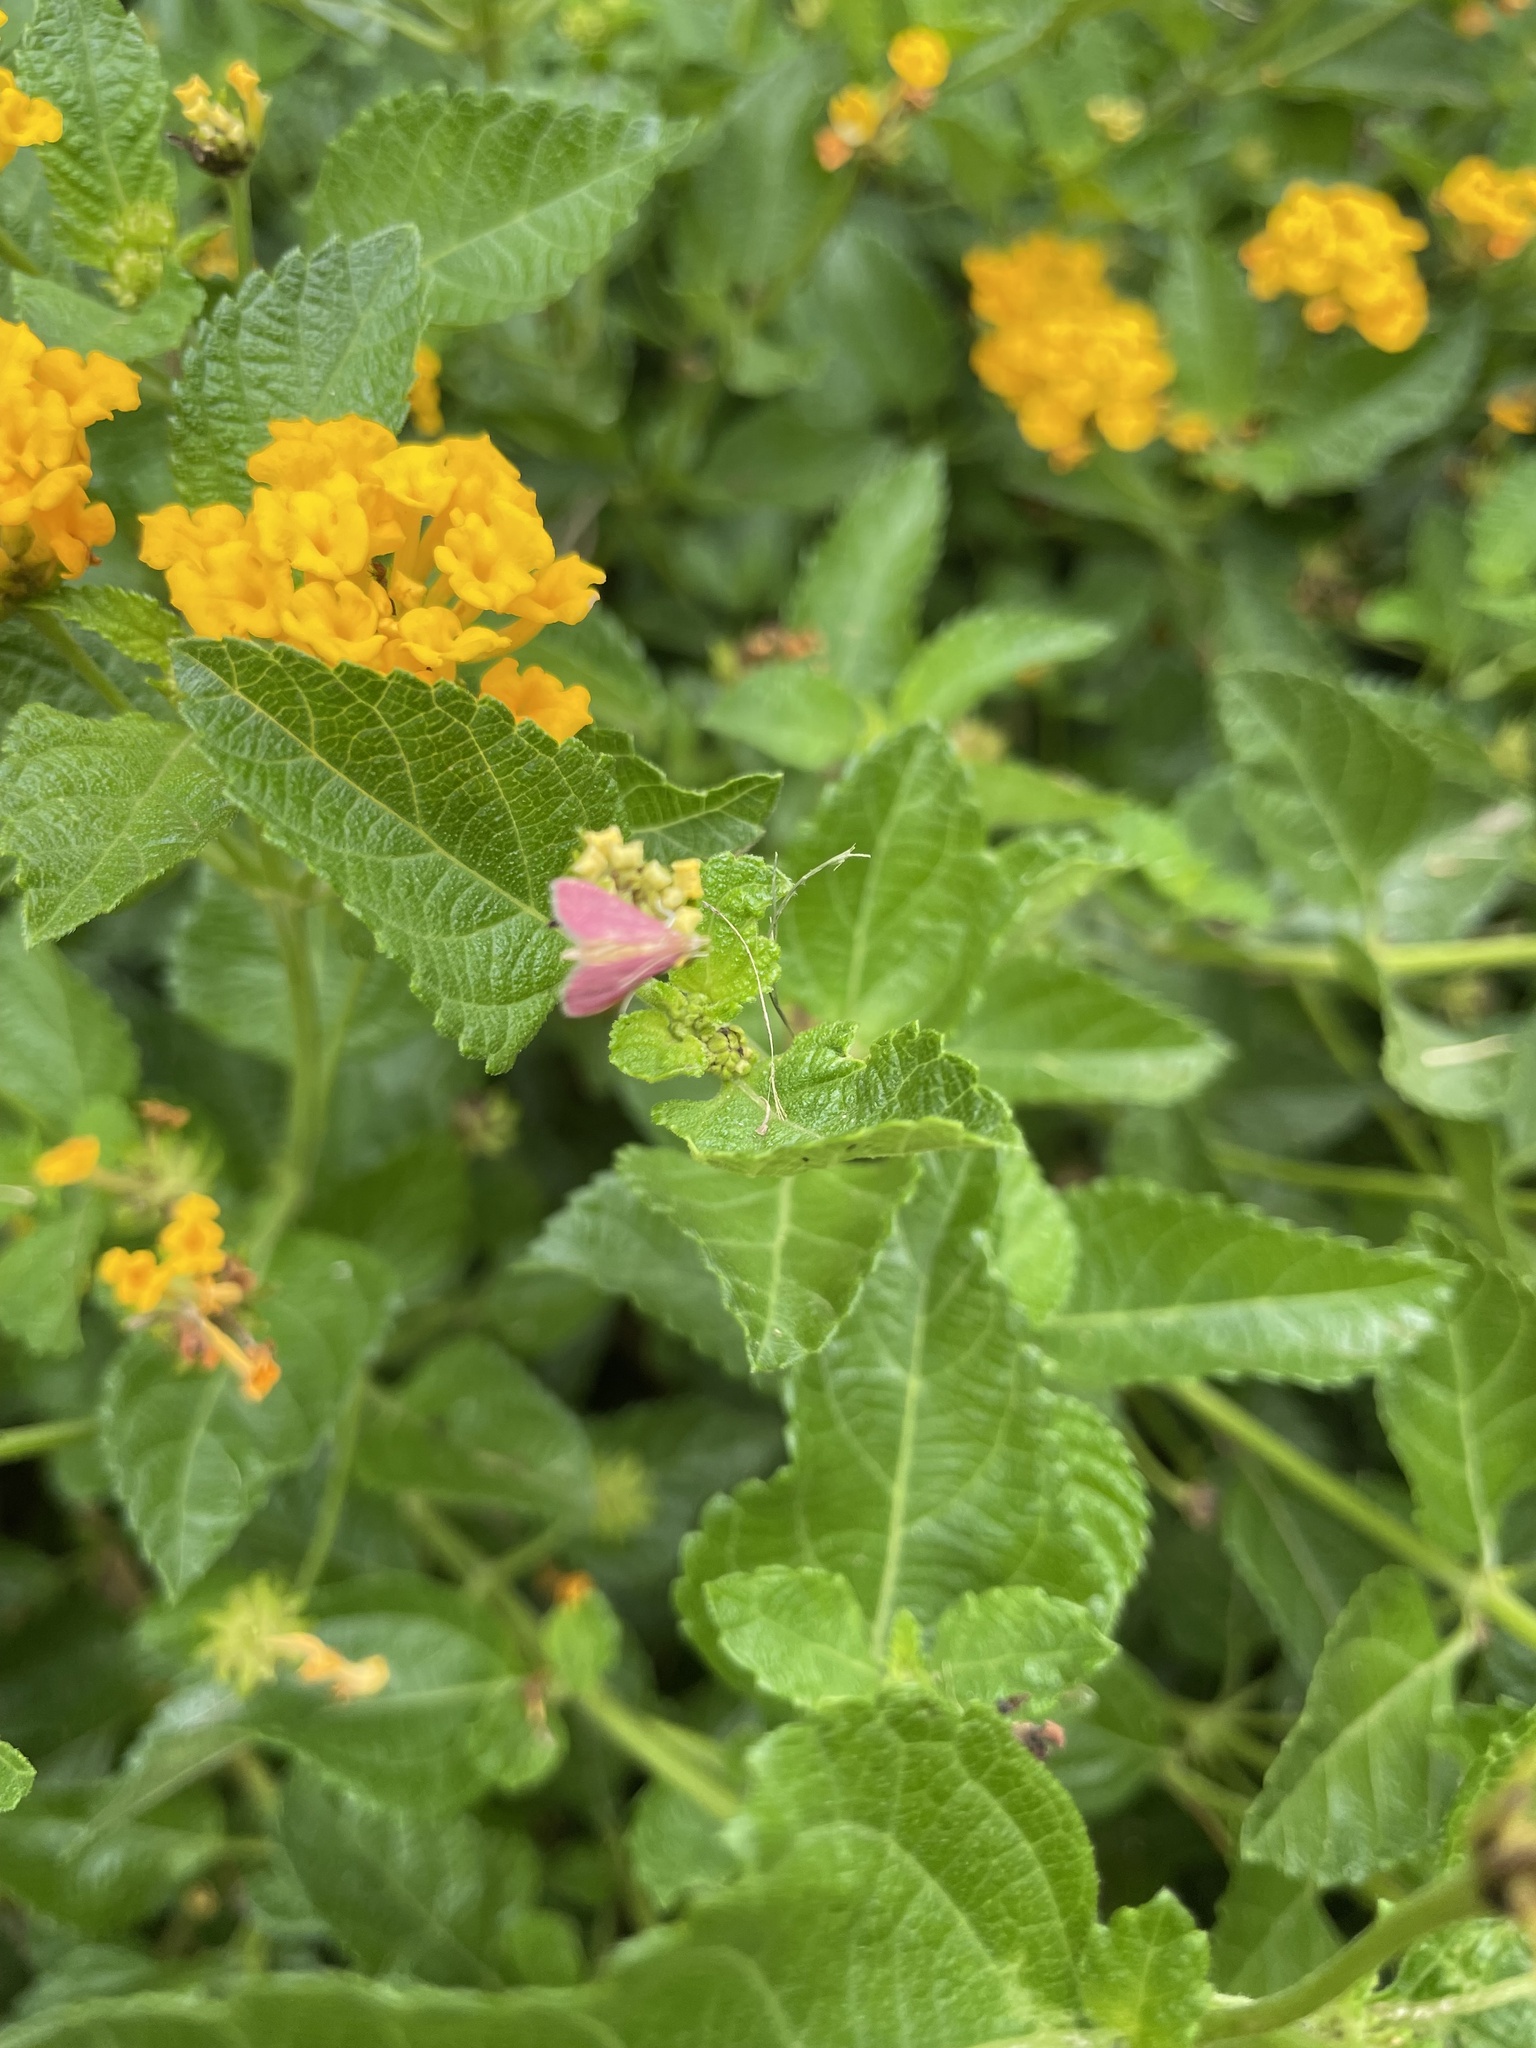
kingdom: Animalia
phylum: Arthropoda
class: Insecta
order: Lepidoptera
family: Crambidae
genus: Pyrausta
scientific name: Pyrausta inornatalis
